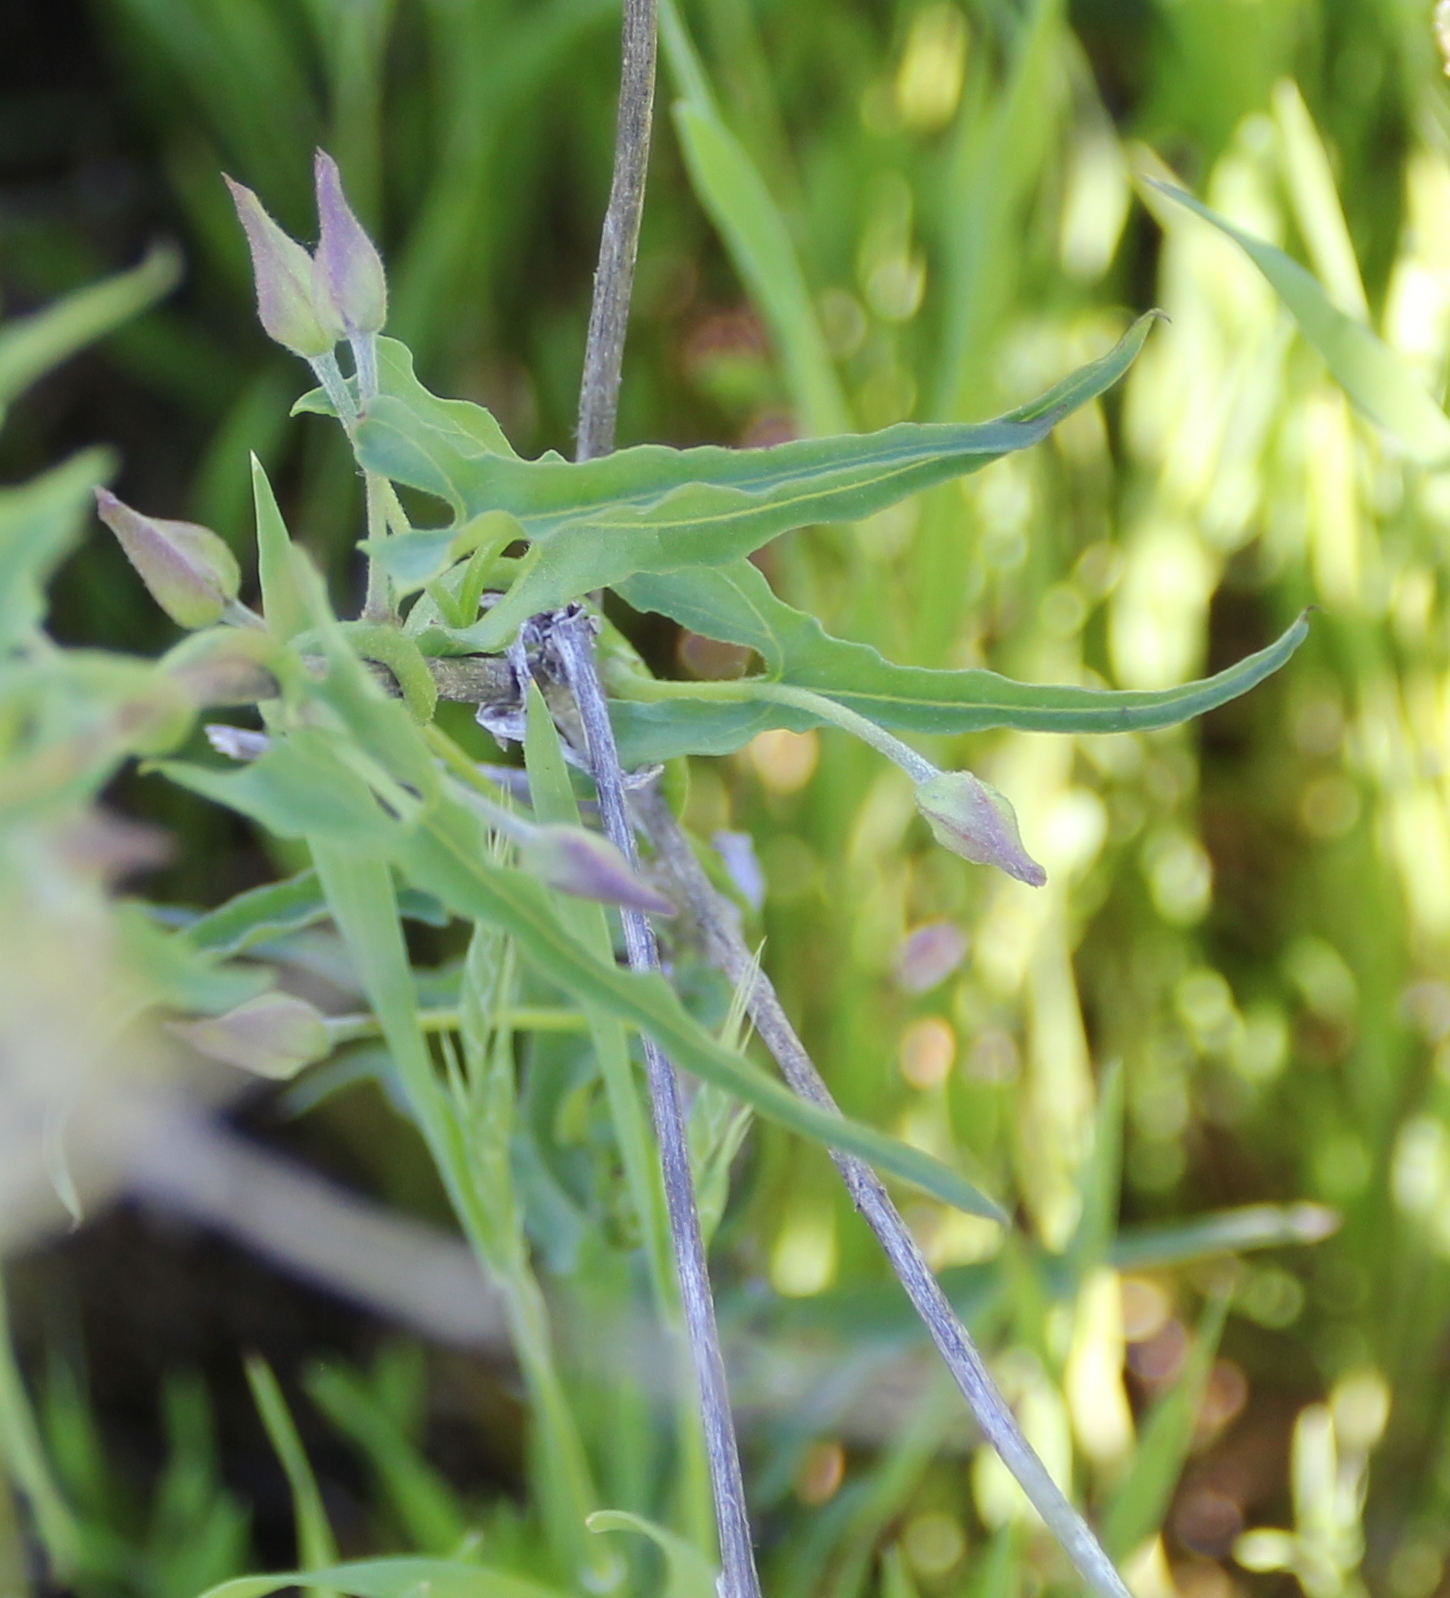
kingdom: Plantae
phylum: Tracheophyta
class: Magnoliopsida
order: Solanales
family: Convolvulaceae
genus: Calystegia
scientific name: Calystegia macrostegia
